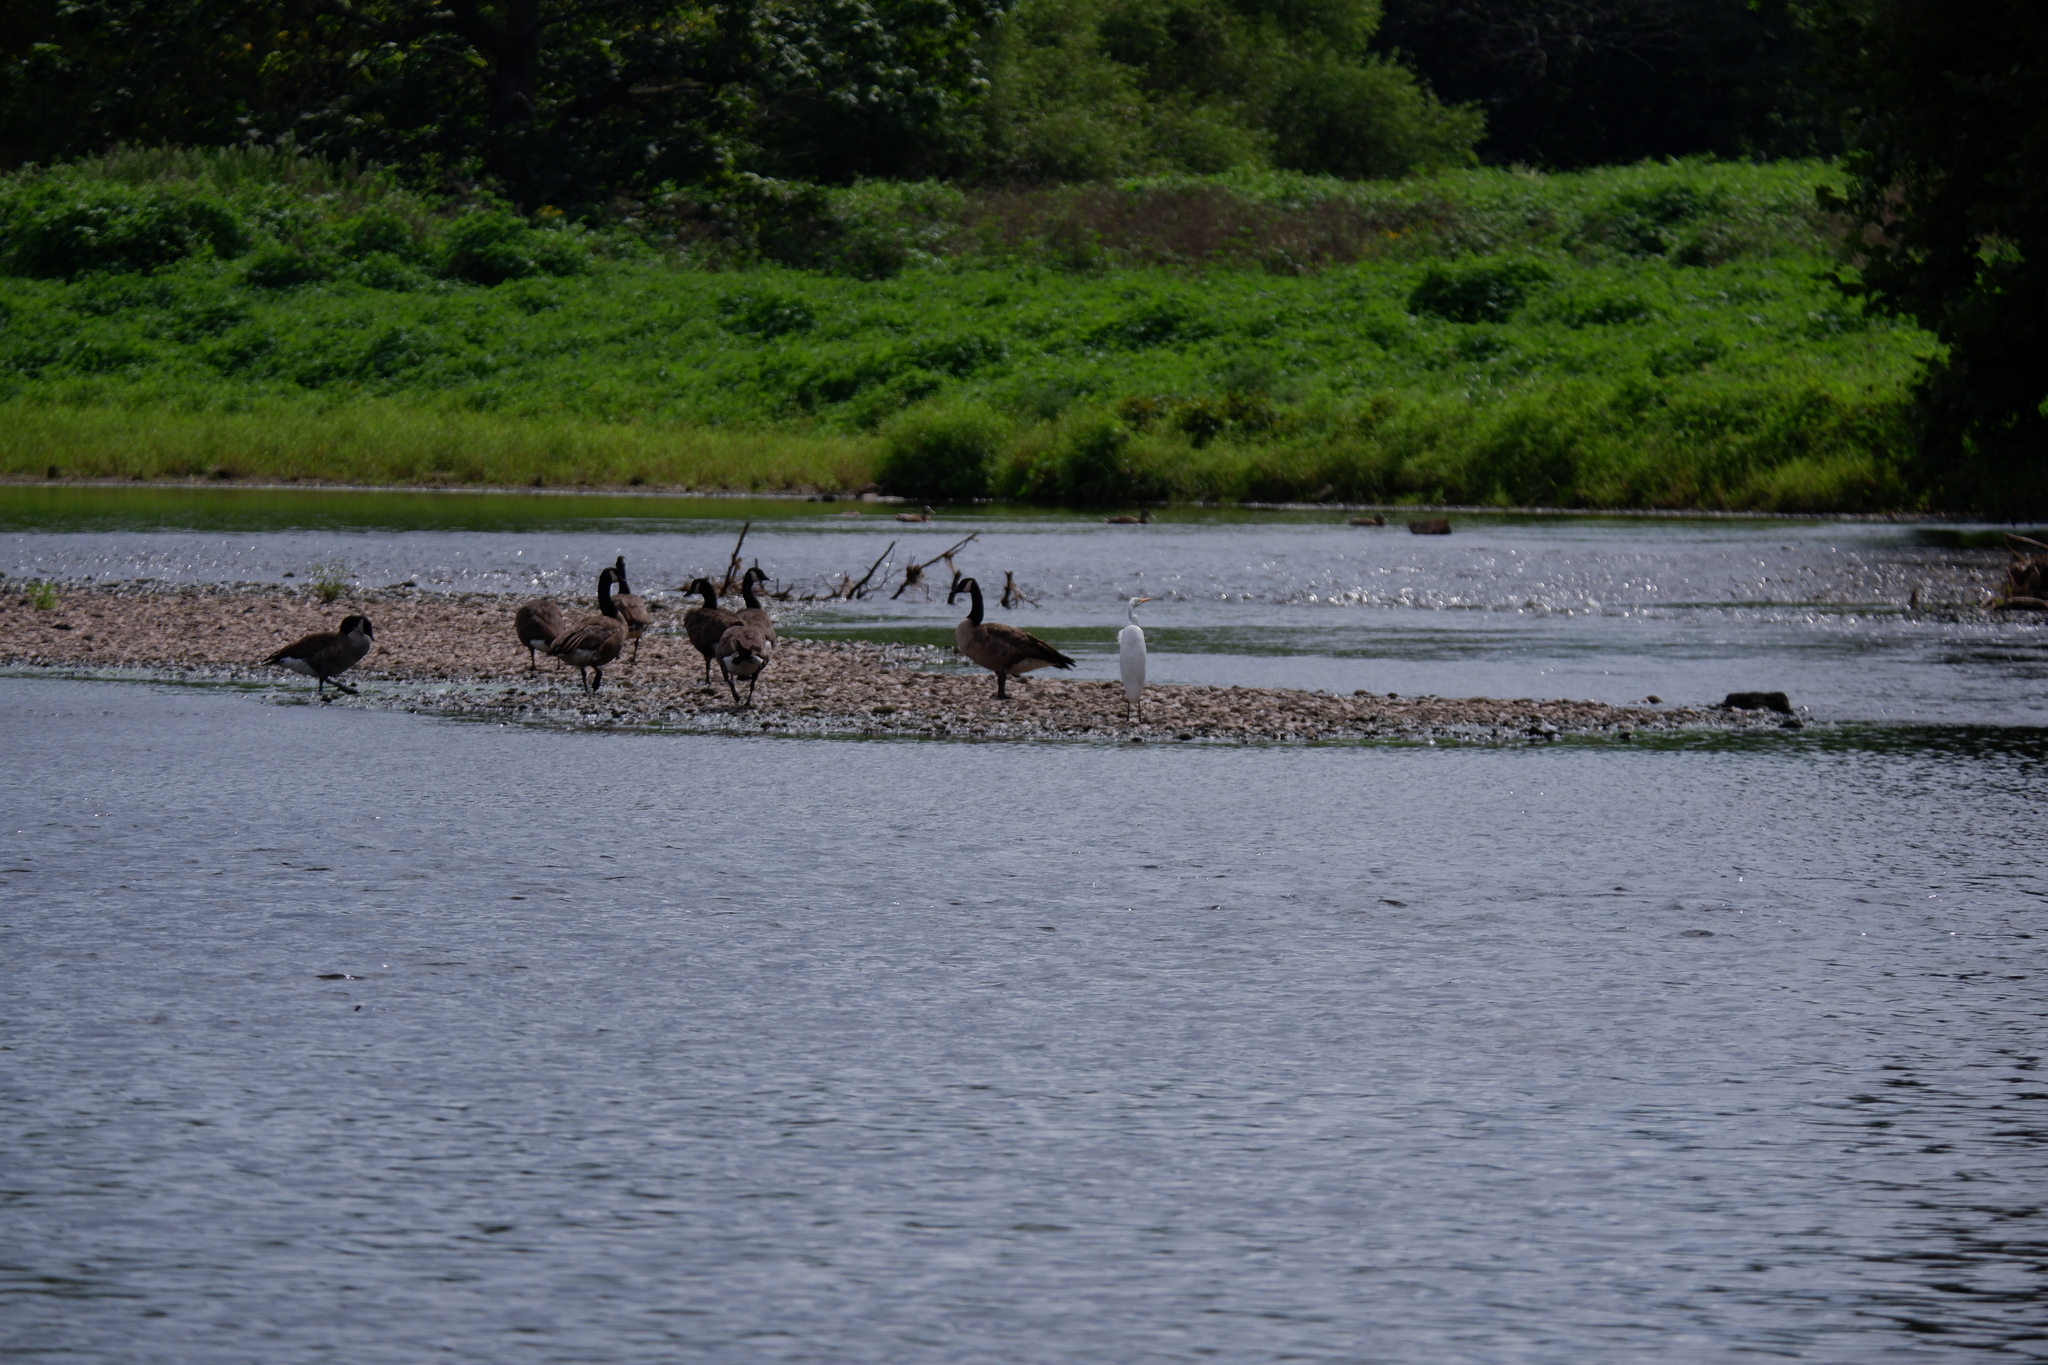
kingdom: Animalia
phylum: Chordata
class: Aves
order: Pelecaniformes
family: Ardeidae
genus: Ardea
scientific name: Ardea alba
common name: Great egret
